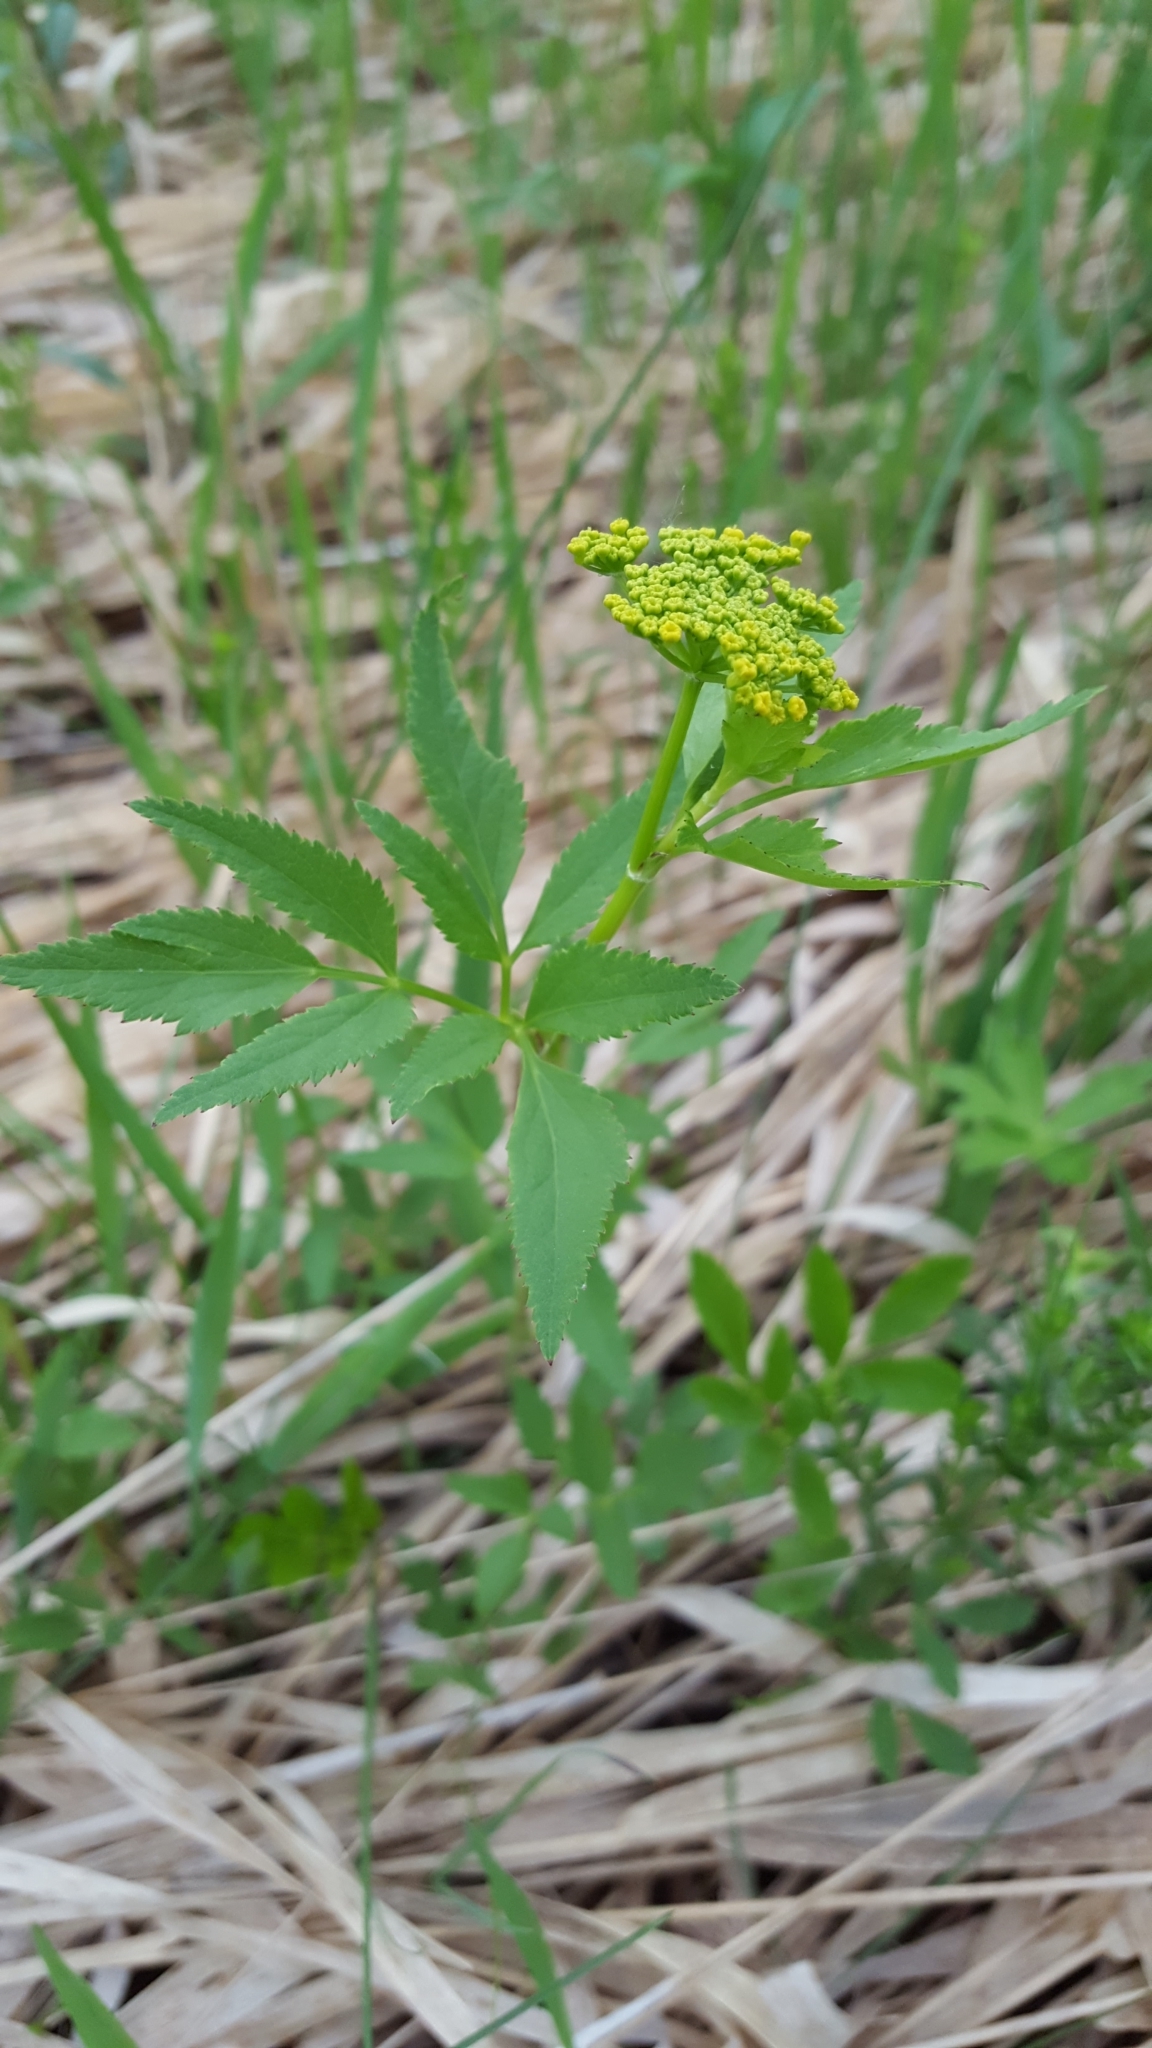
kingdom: Plantae
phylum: Tracheophyta
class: Magnoliopsida
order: Apiales
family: Apiaceae
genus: Zizia
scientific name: Zizia aurea
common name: Golden alexanders
